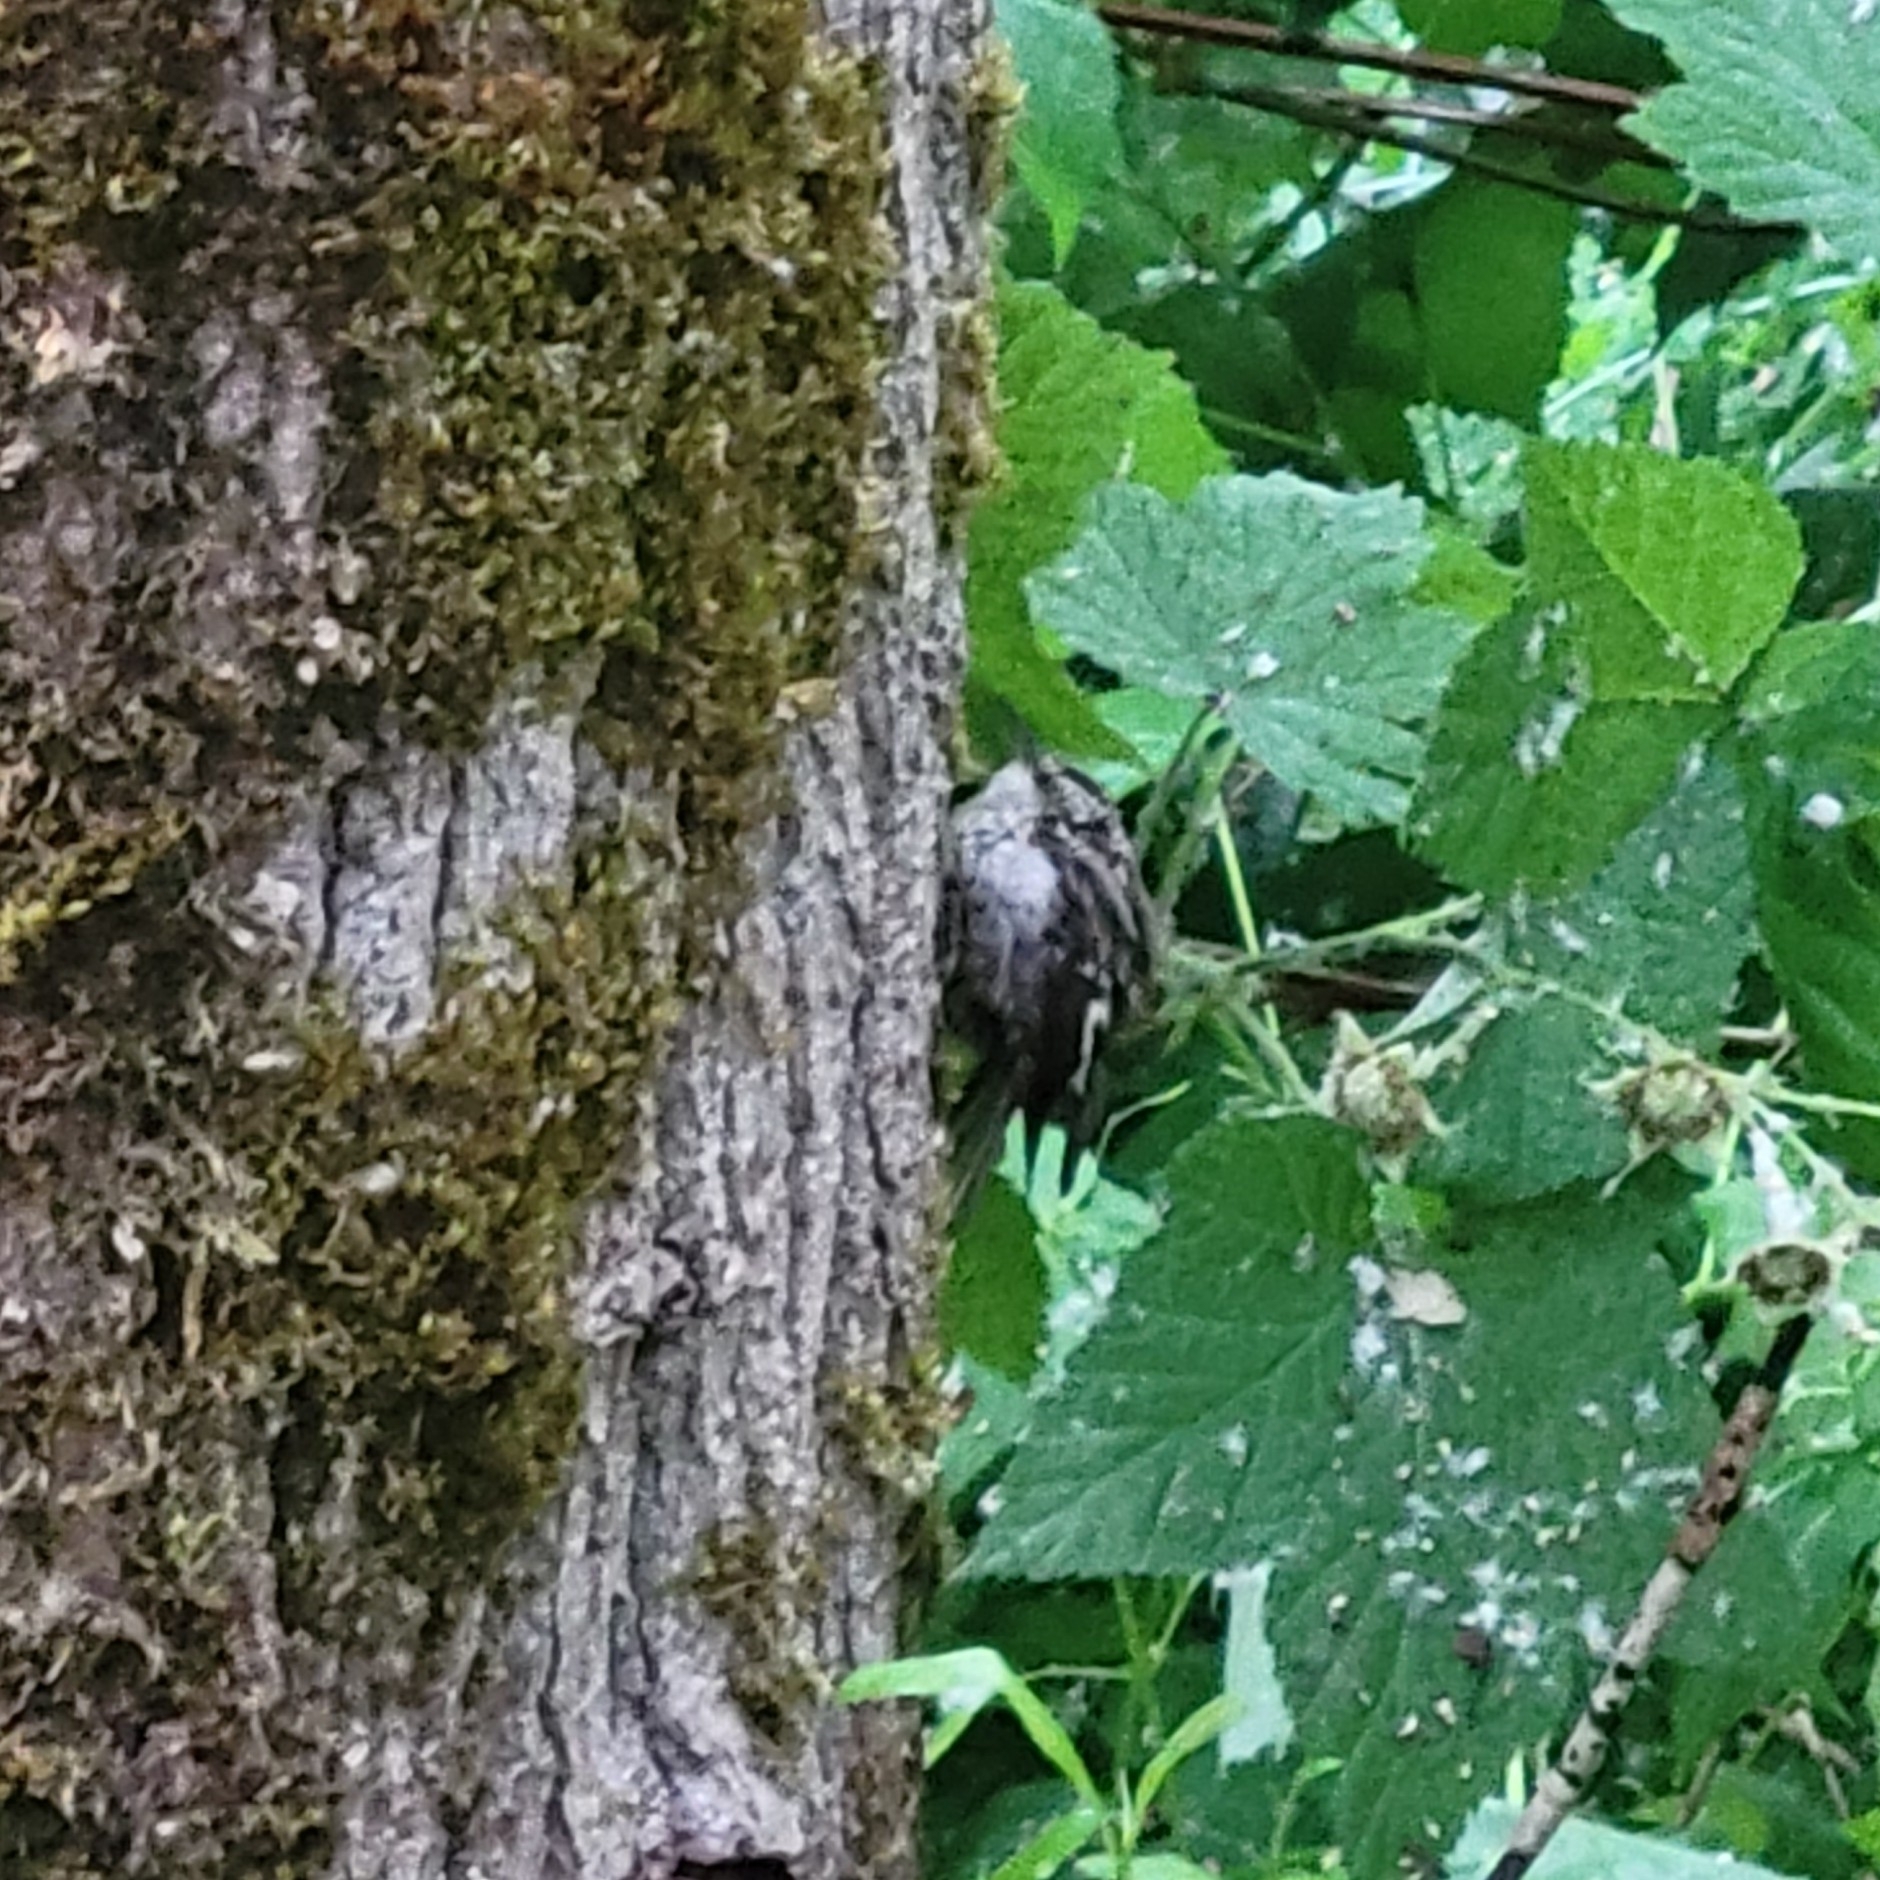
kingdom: Animalia
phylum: Chordata
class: Aves
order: Passeriformes
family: Certhiidae
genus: Certhia
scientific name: Certhia americana
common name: Brown creeper
